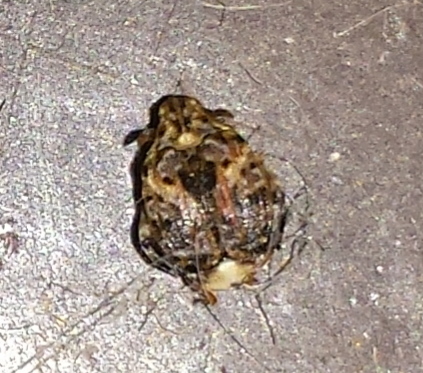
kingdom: Animalia
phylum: Arthropoda
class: Insecta
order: Coleoptera
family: Chrysomelidae
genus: Gibbobruchus
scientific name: Gibbobruchus mimus
